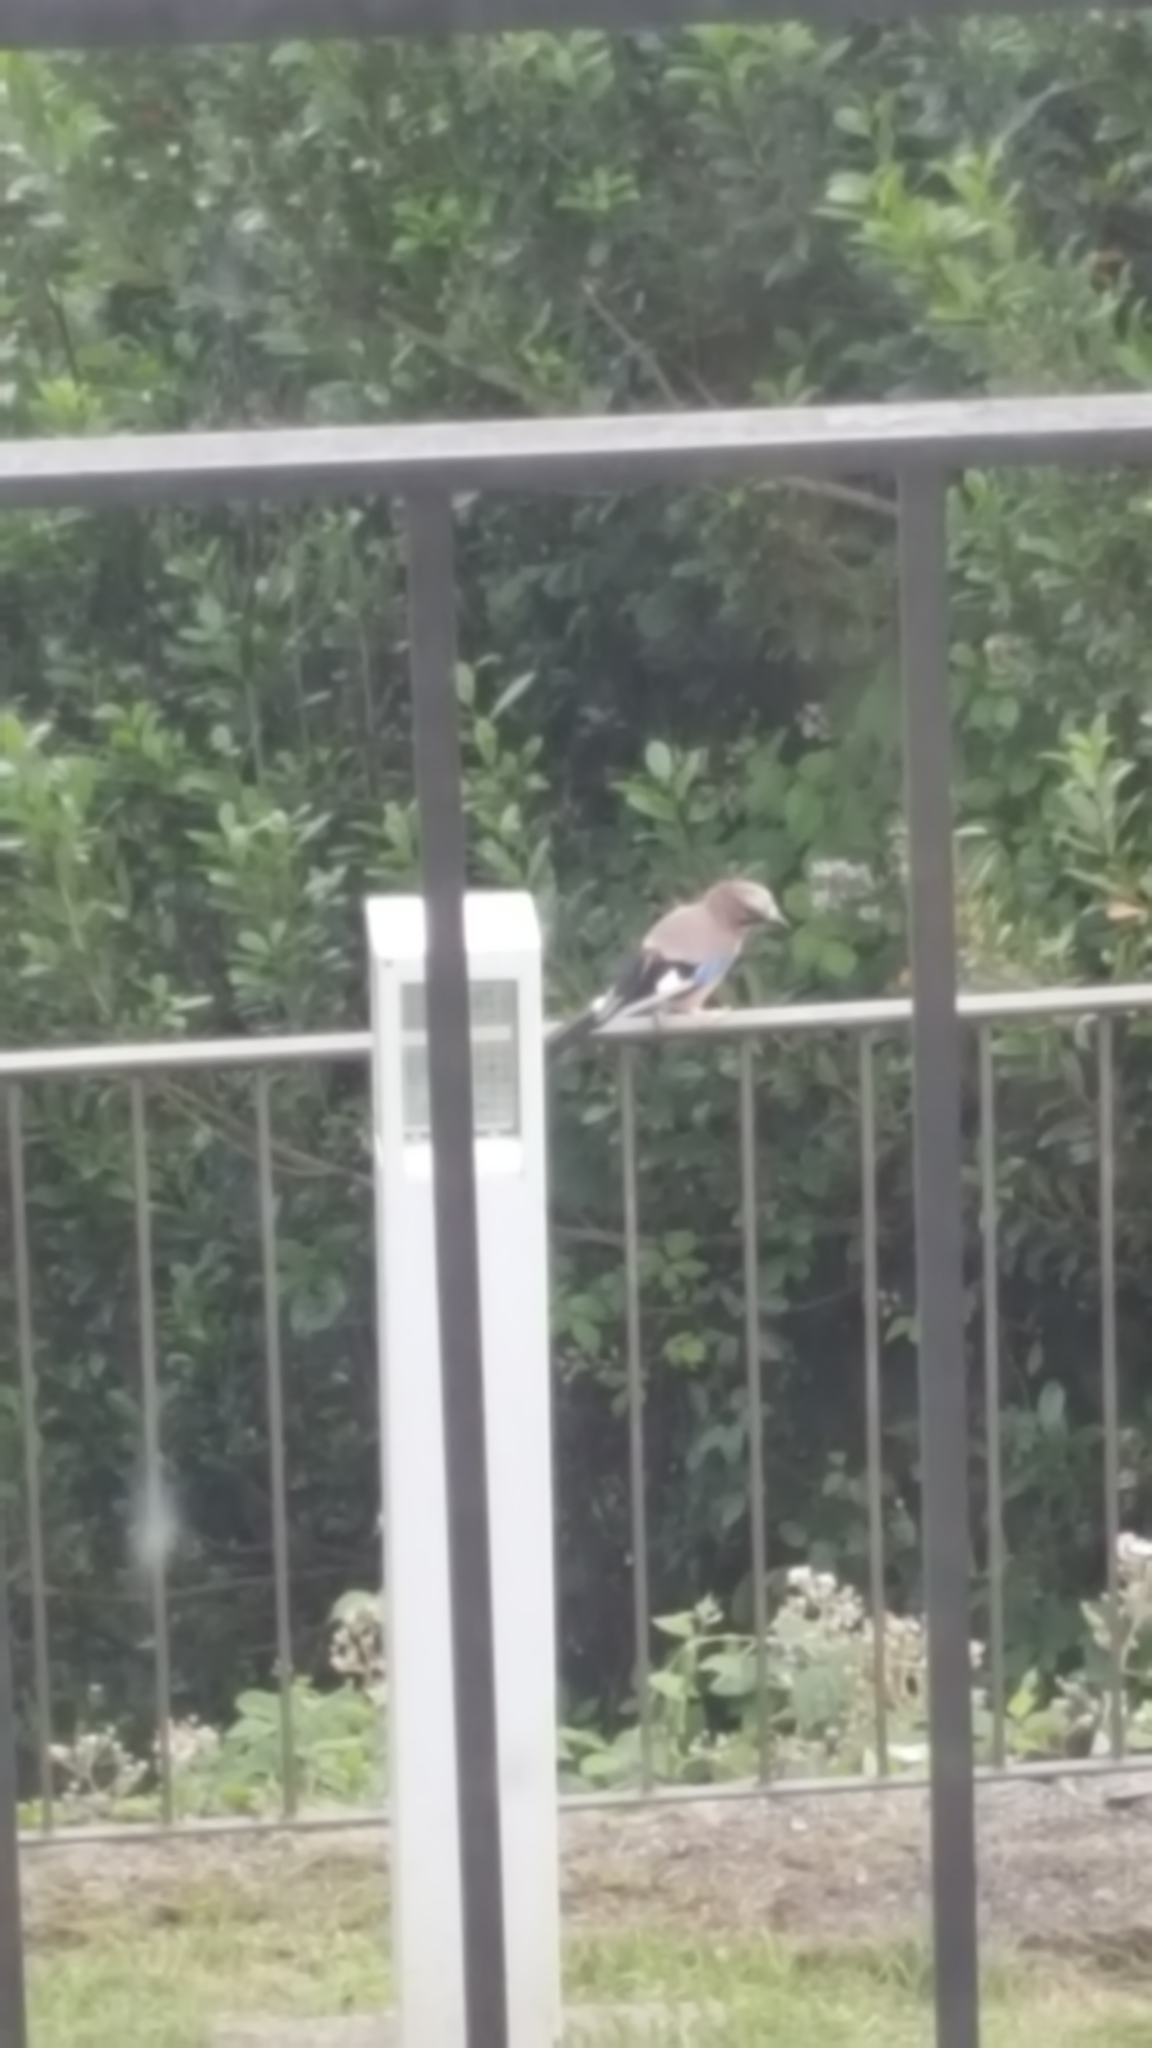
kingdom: Animalia
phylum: Chordata
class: Aves
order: Passeriformes
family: Corvidae
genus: Garrulus
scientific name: Garrulus glandarius
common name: Eurasian jay
